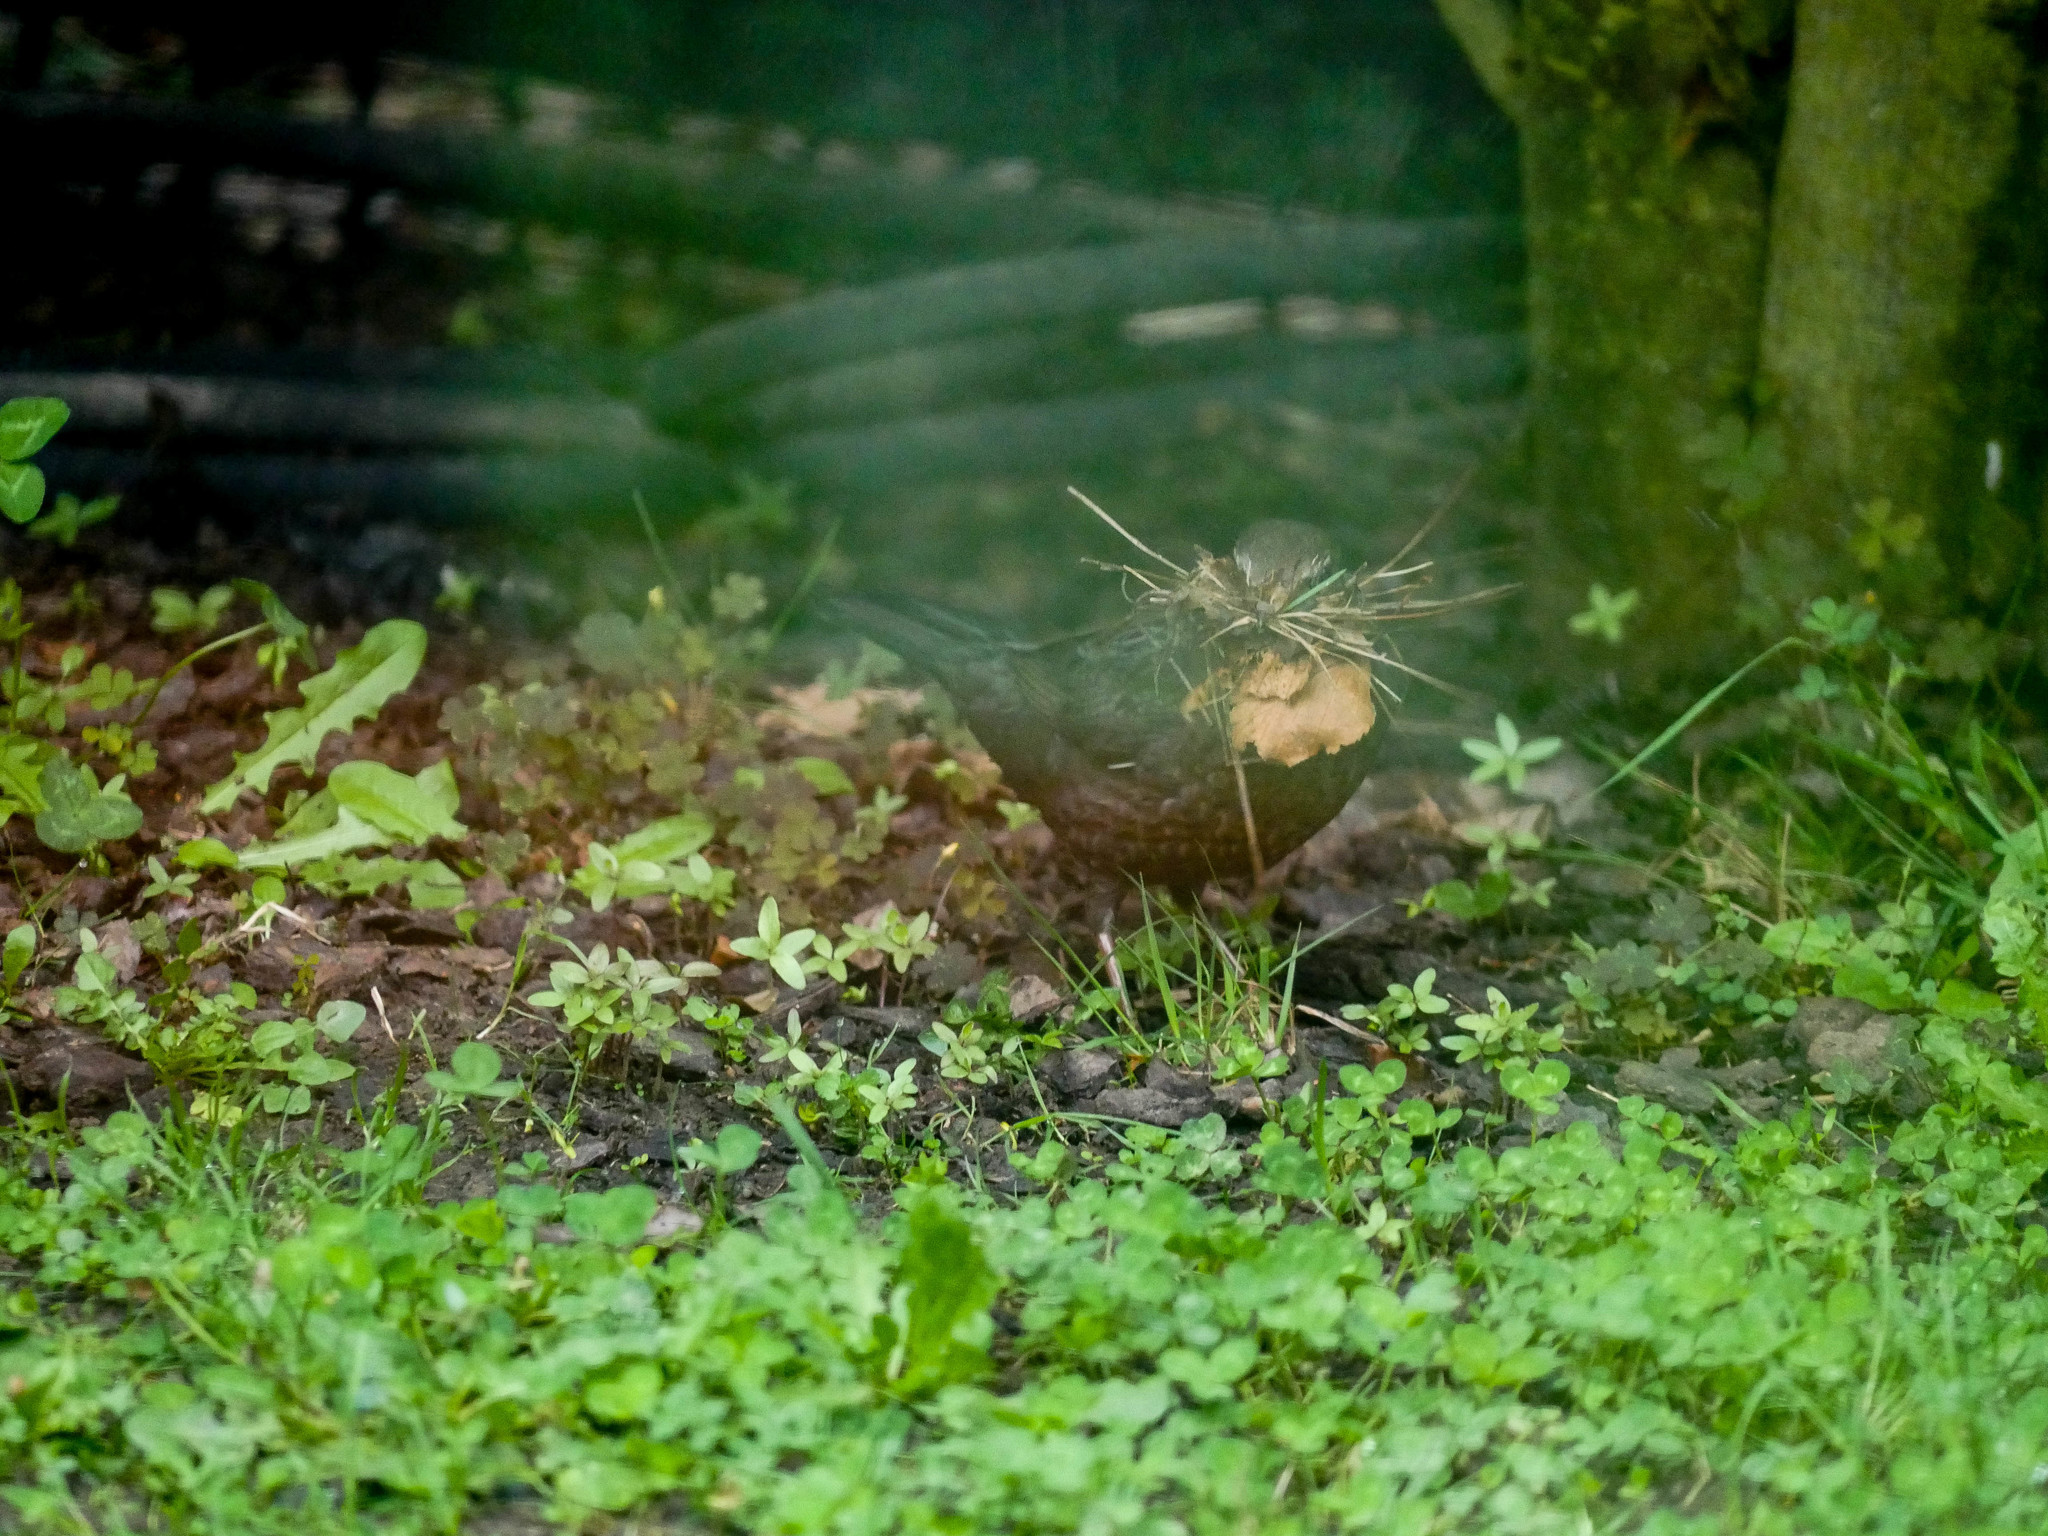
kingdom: Animalia
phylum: Chordata
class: Aves
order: Passeriformes
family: Turdidae
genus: Turdus
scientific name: Turdus merula
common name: Common blackbird
